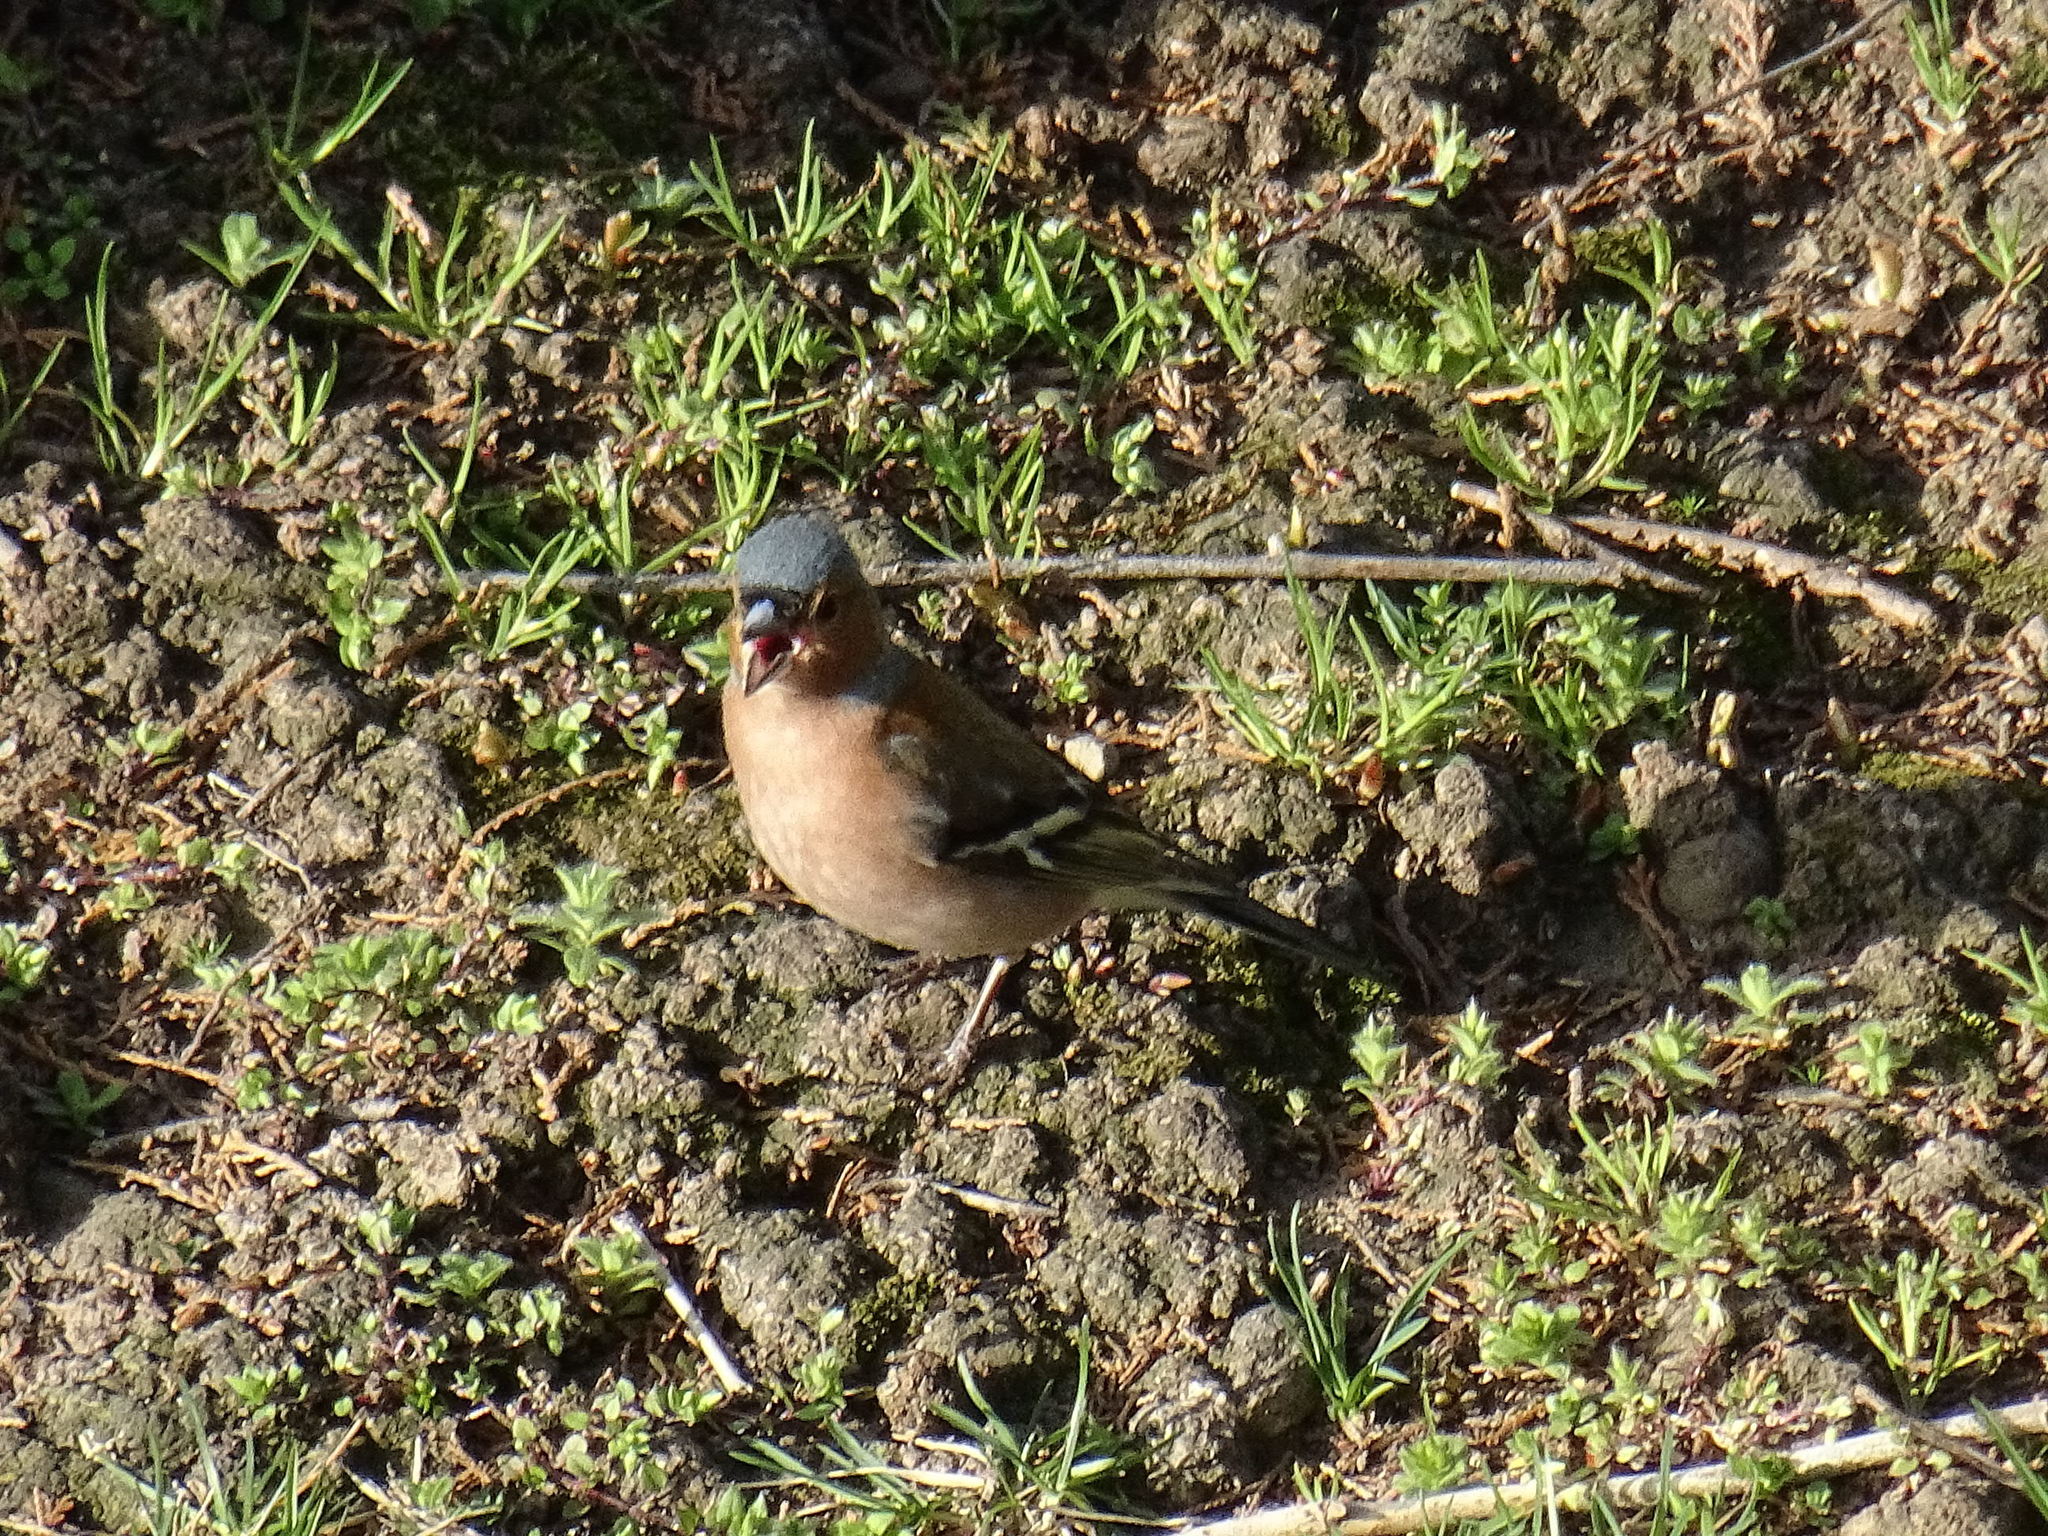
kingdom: Animalia
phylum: Chordata
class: Aves
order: Passeriformes
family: Fringillidae
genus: Fringilla
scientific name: Fringilla coelebs
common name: Common chaffinch
